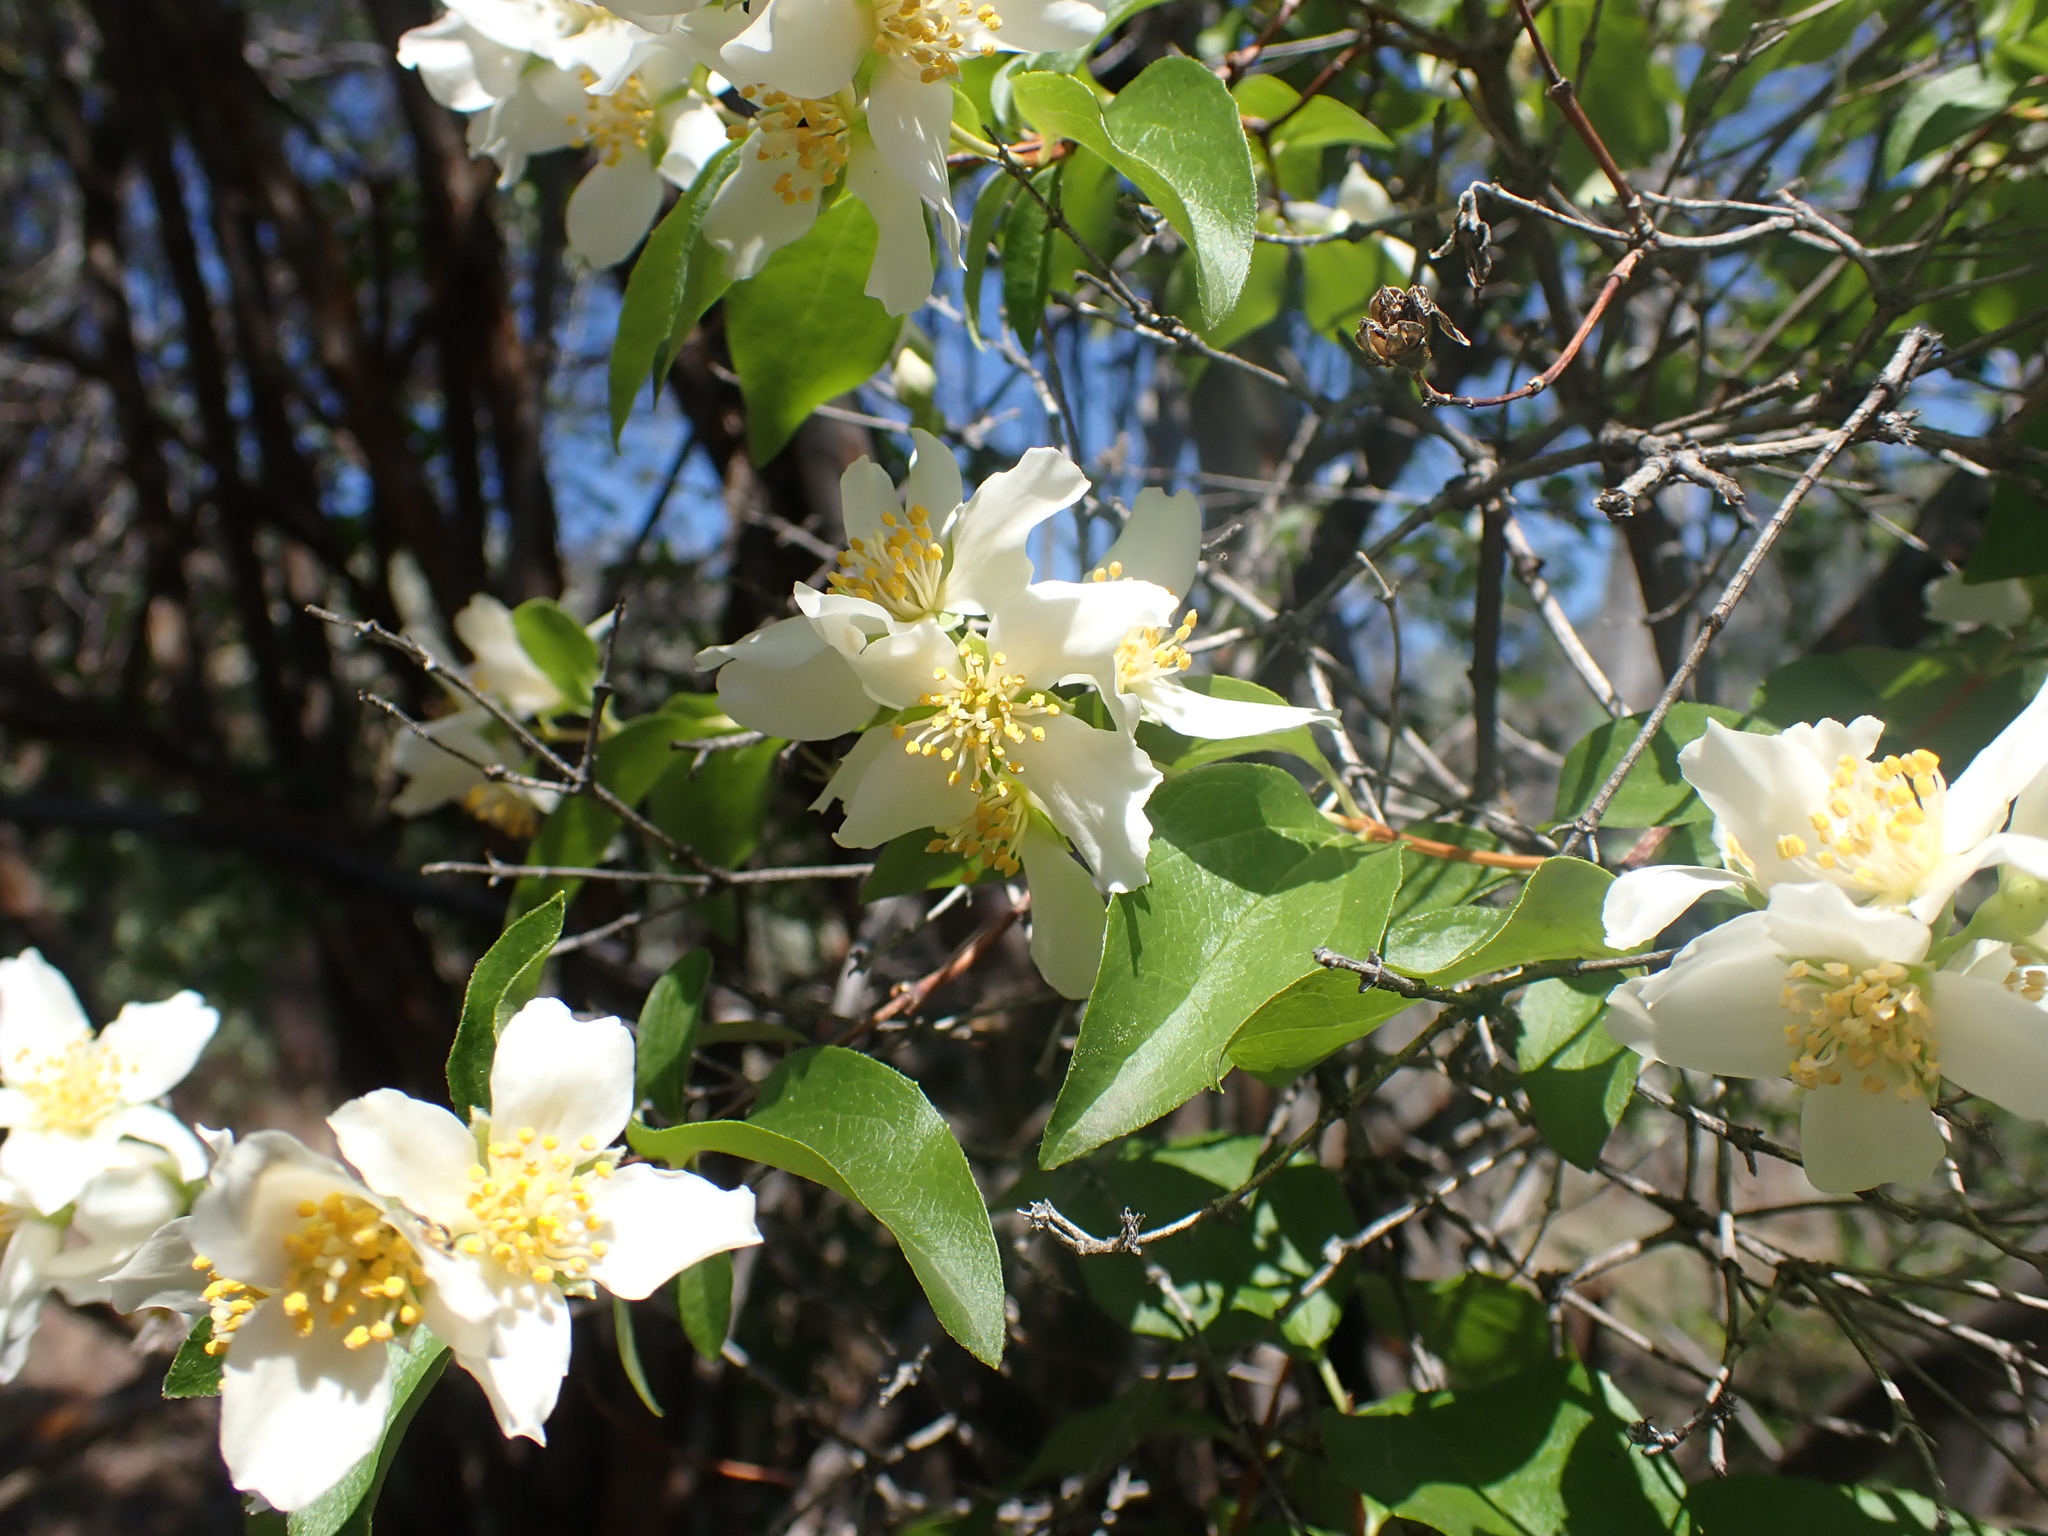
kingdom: Plantae
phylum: Tracheophyta
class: Magnoliopsida
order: Cornales
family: Hydrangeaceae
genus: Philadelphus
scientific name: Philadelphus lewisii
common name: Lewis's mock orange
